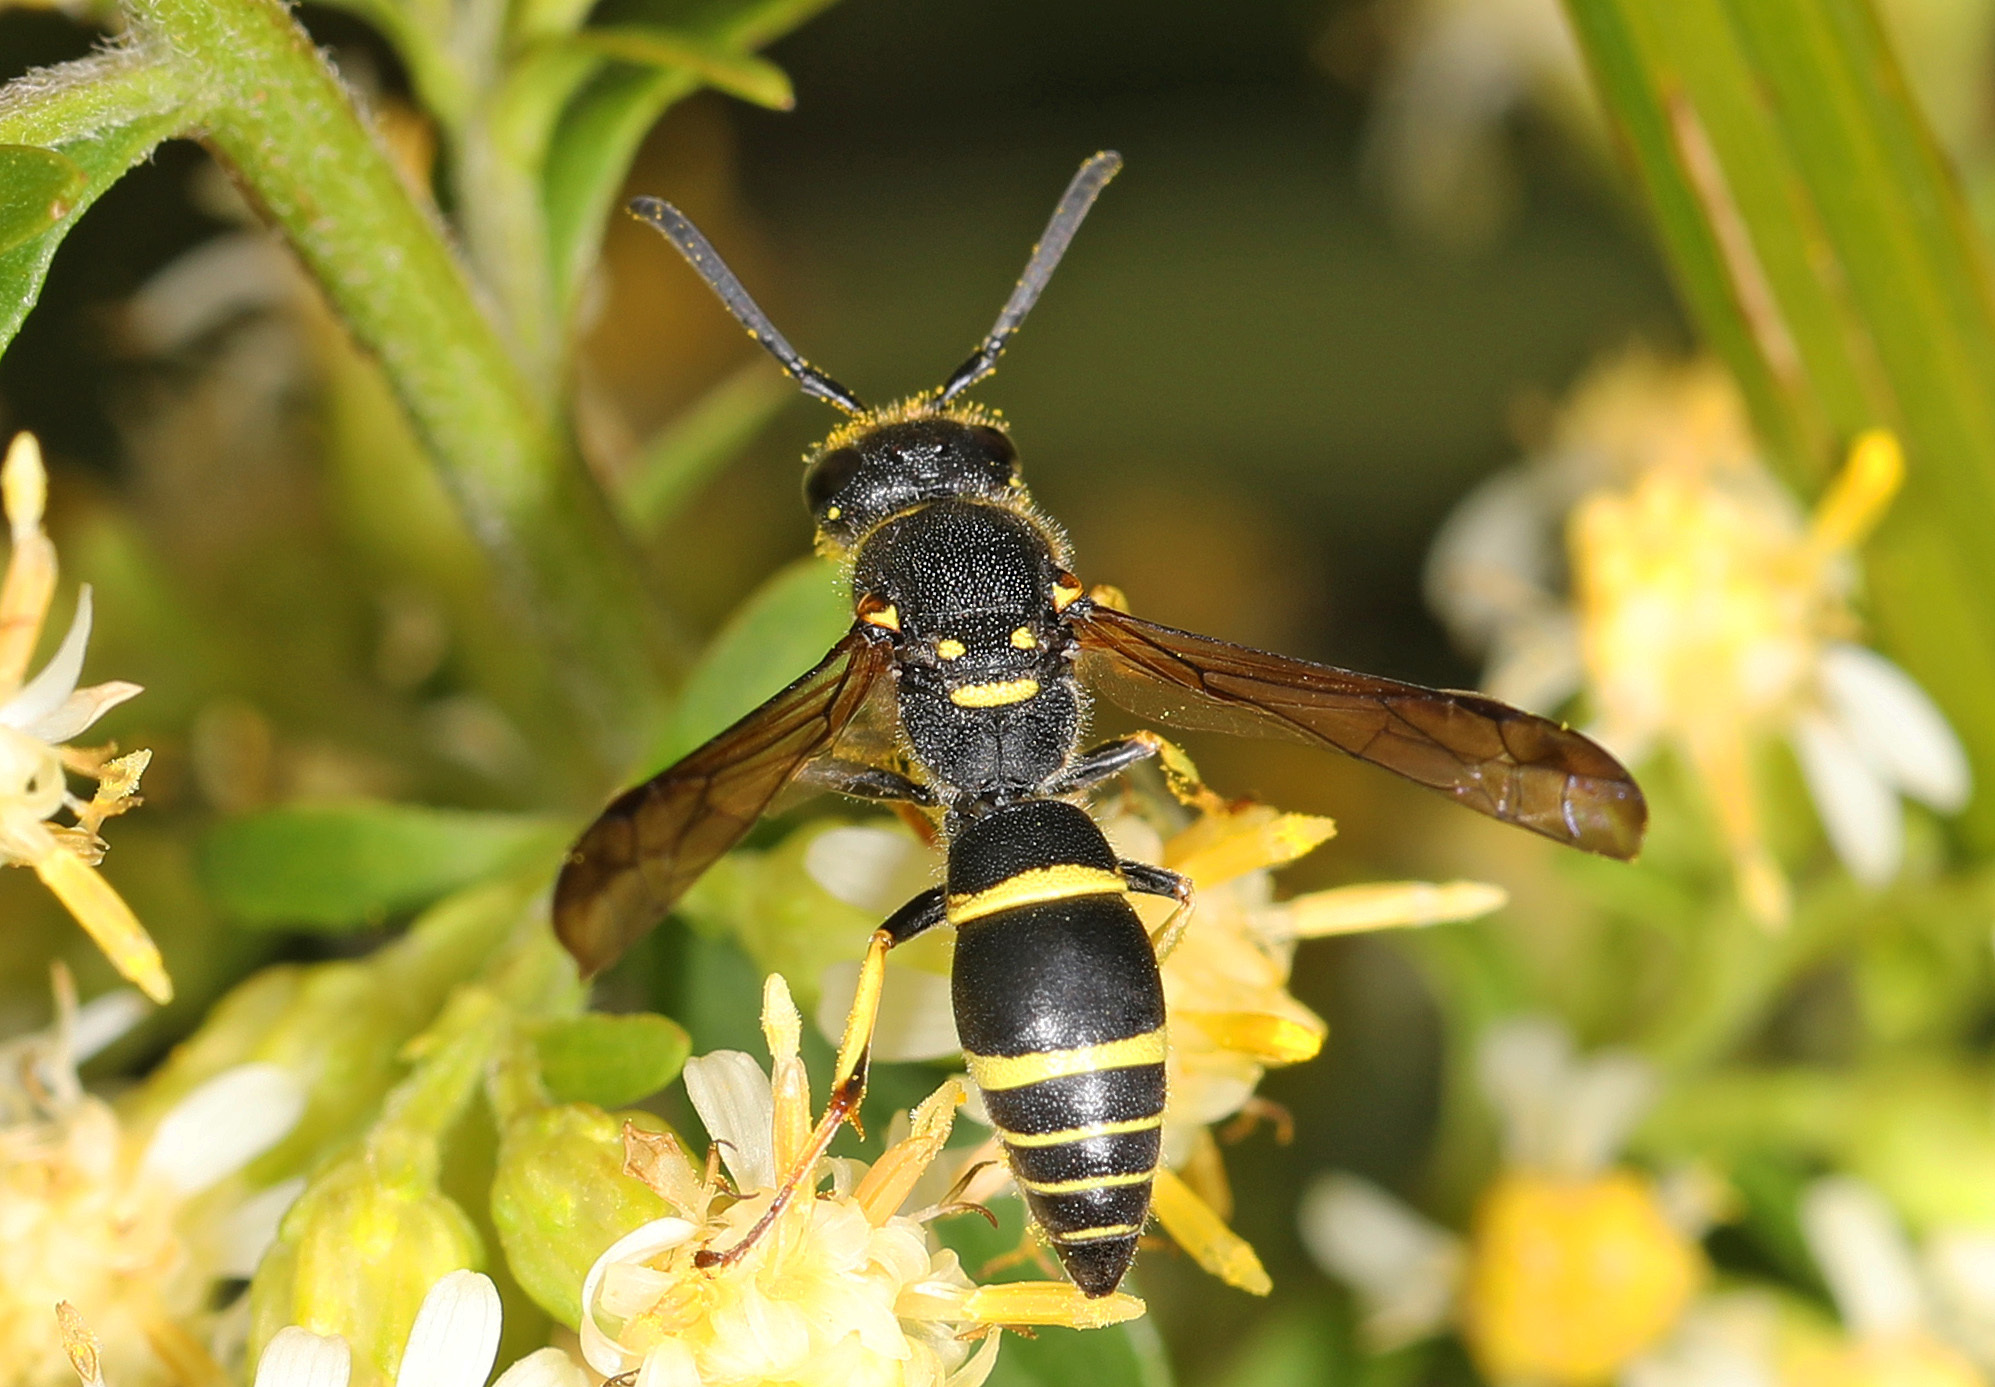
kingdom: Animalia
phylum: Arthropoda
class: Insecta
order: Hymenoptera
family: Vespidae
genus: Ancistrocerus
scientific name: Ancistrocerus adiabatus
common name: Bramble mason wasp
